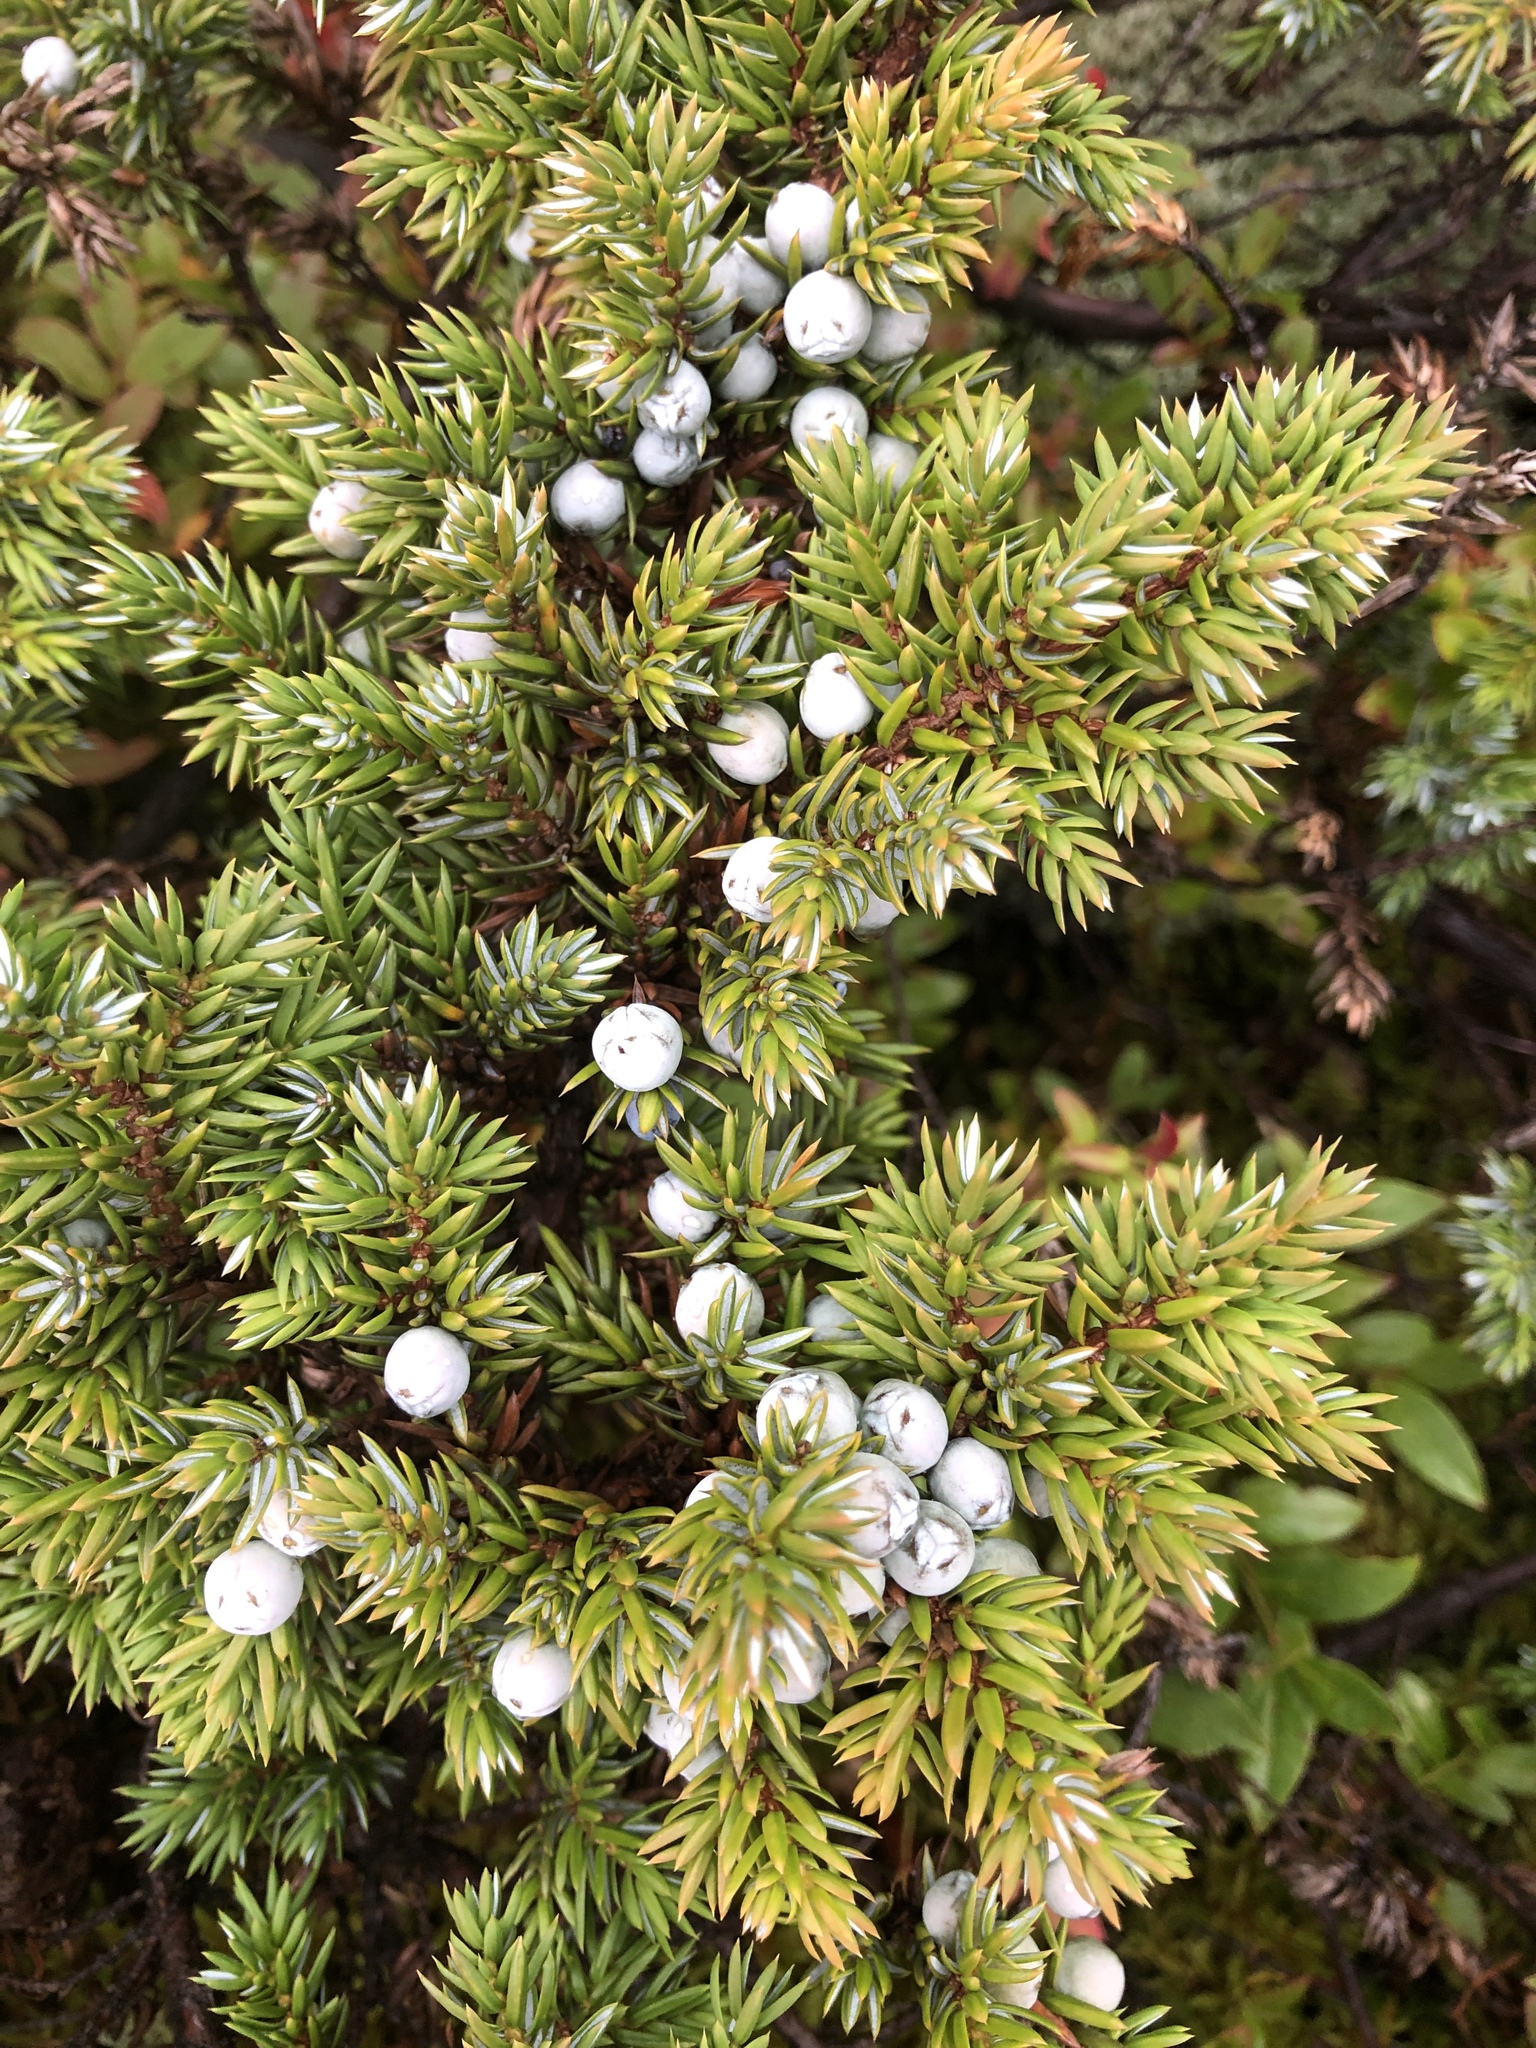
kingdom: Plantae
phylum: Tracheophyta
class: Pinopsida
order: Pinales
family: Cupressaceae
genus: Juniperus
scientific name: Juniperus communis
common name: Common juniper
